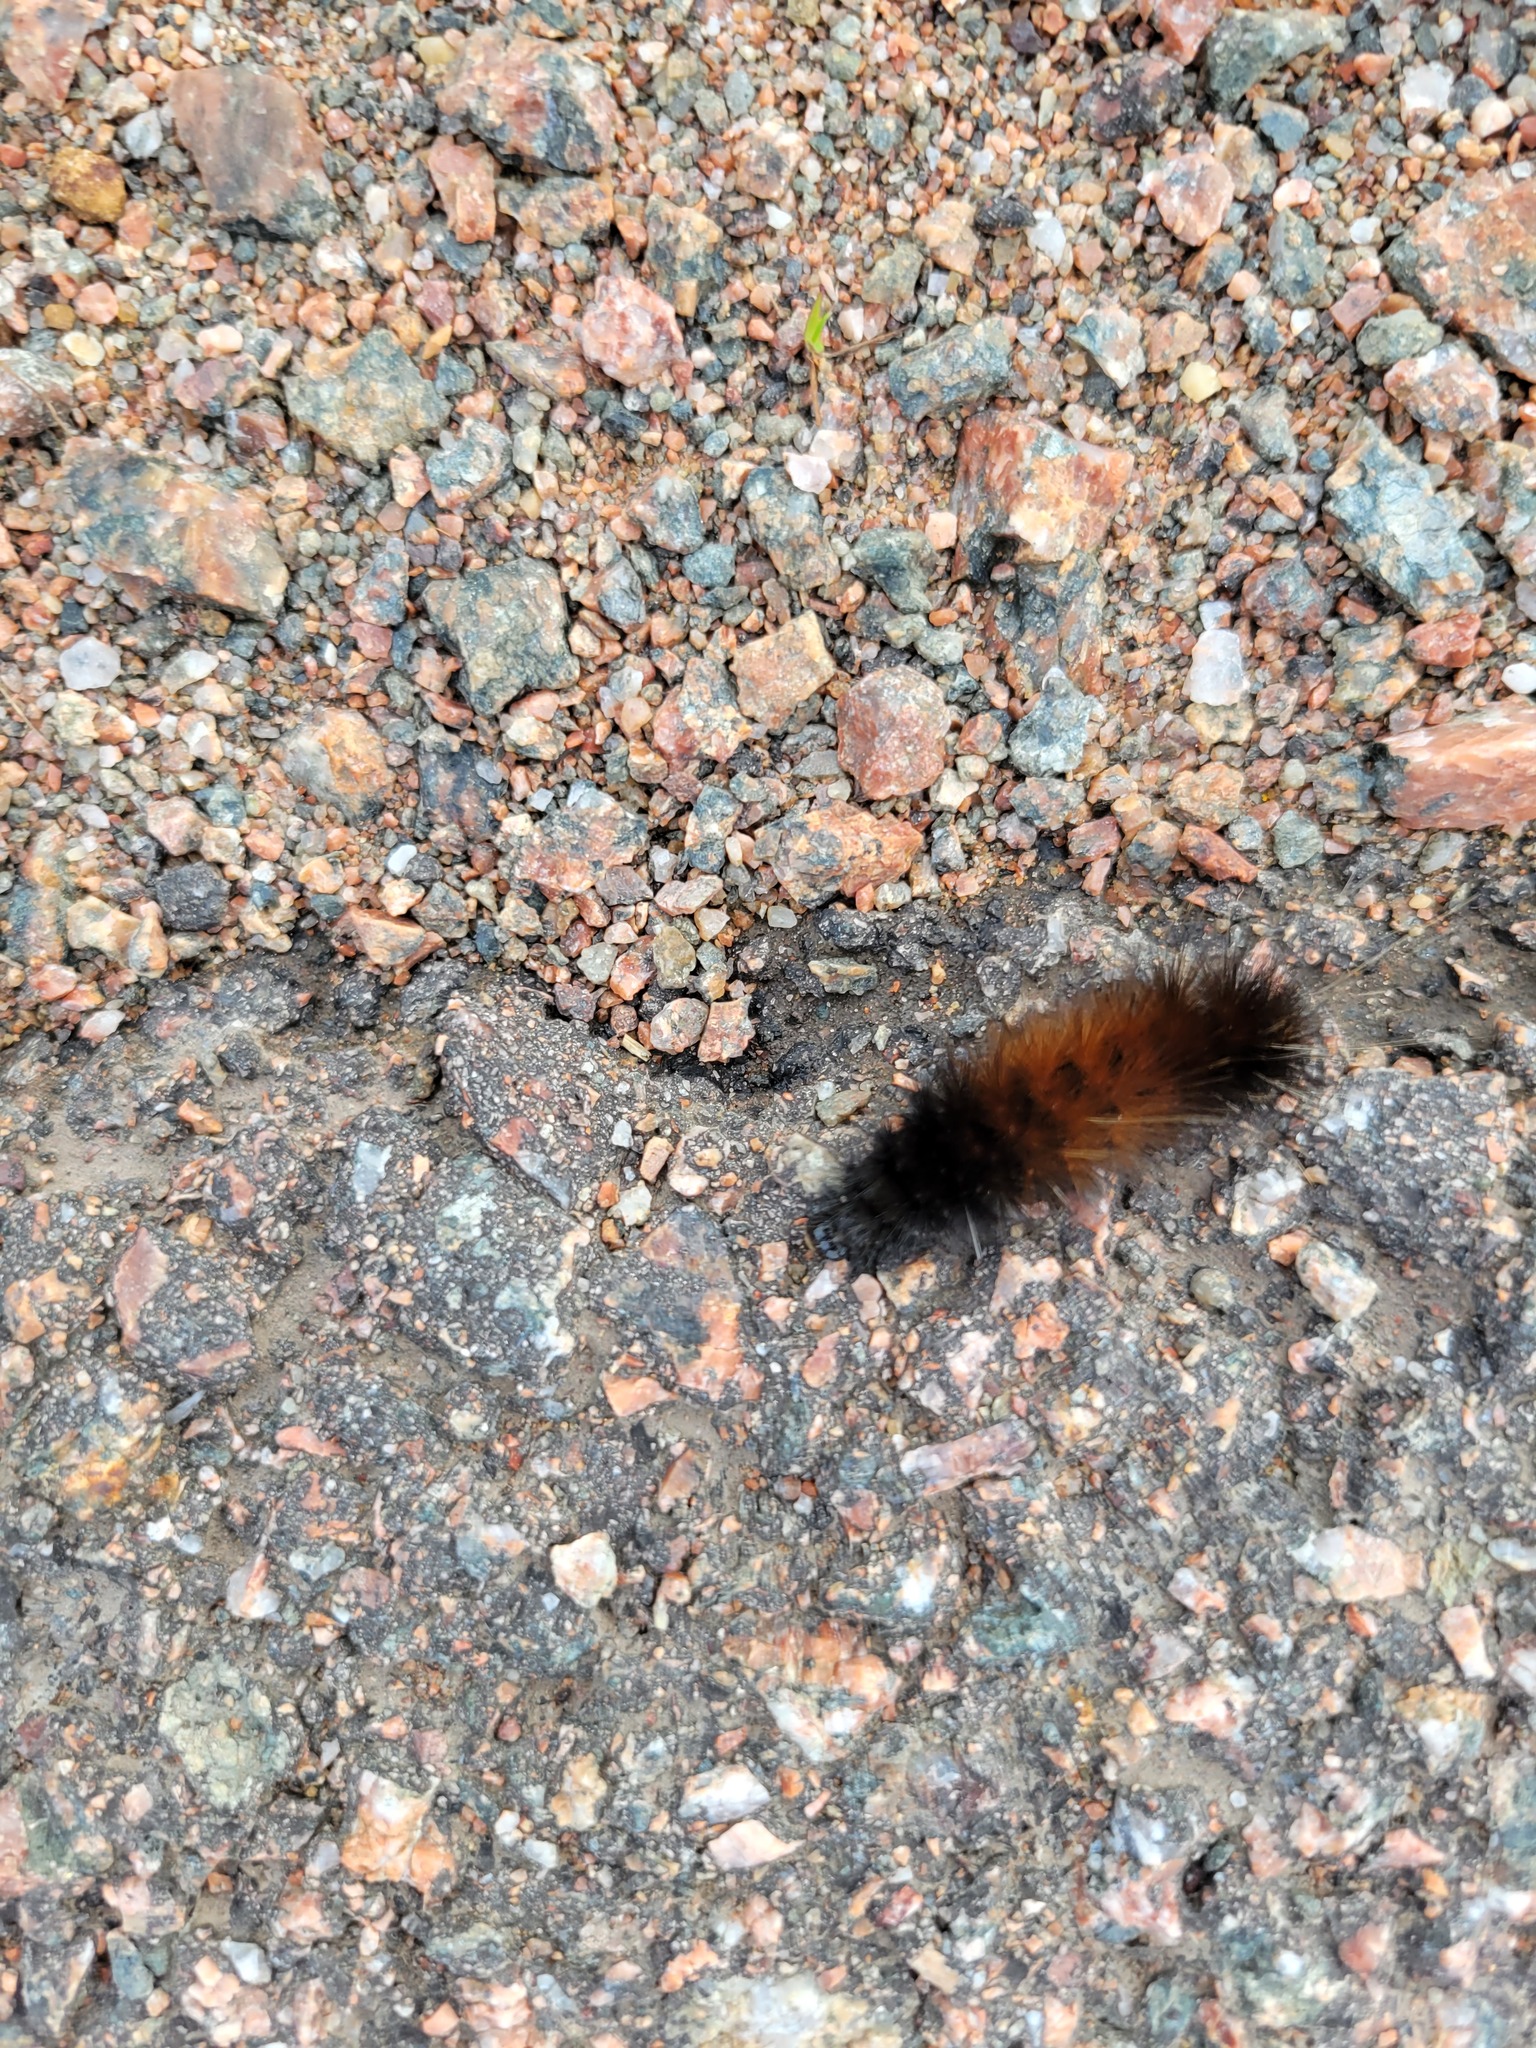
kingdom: Animalia
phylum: Arthropoda
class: Insecta
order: Lepidoptera
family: Erebidae
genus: Pyrrharctia
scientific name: Pyrrharctia isabella
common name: Isabella tiger moth
